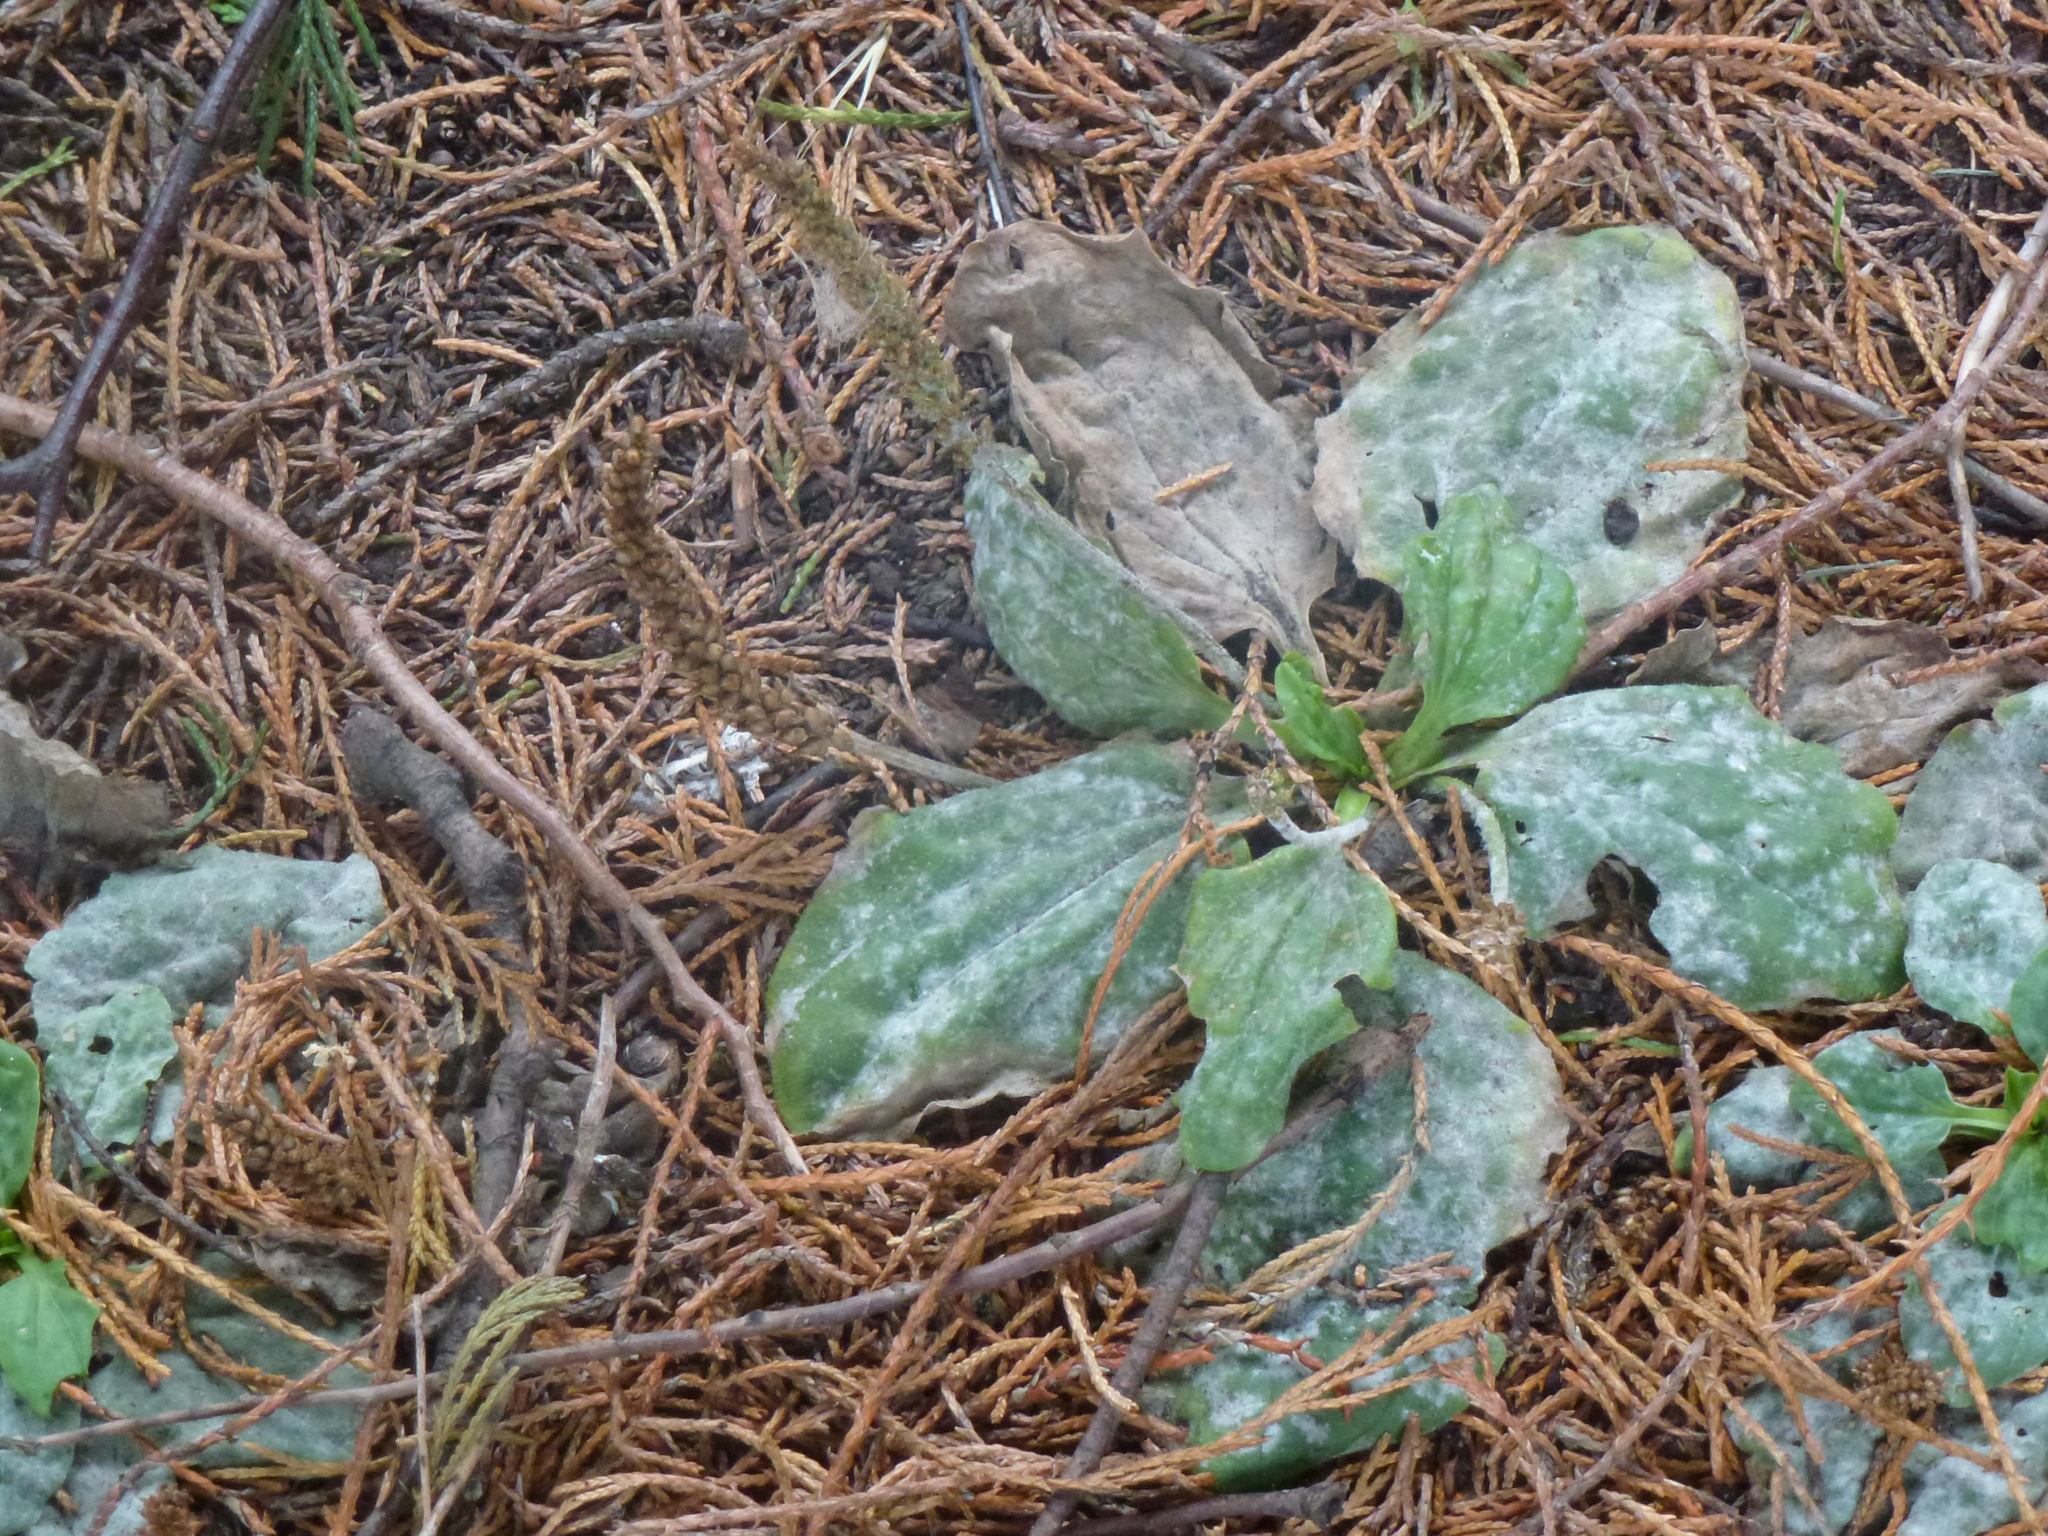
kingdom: Fungi
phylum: Ascomycota
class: Leotiomycetes
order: Helotiales
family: Erysiphaceae
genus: Golovinomyces
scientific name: Golovinomyces sordidus
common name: Plantain mildew
